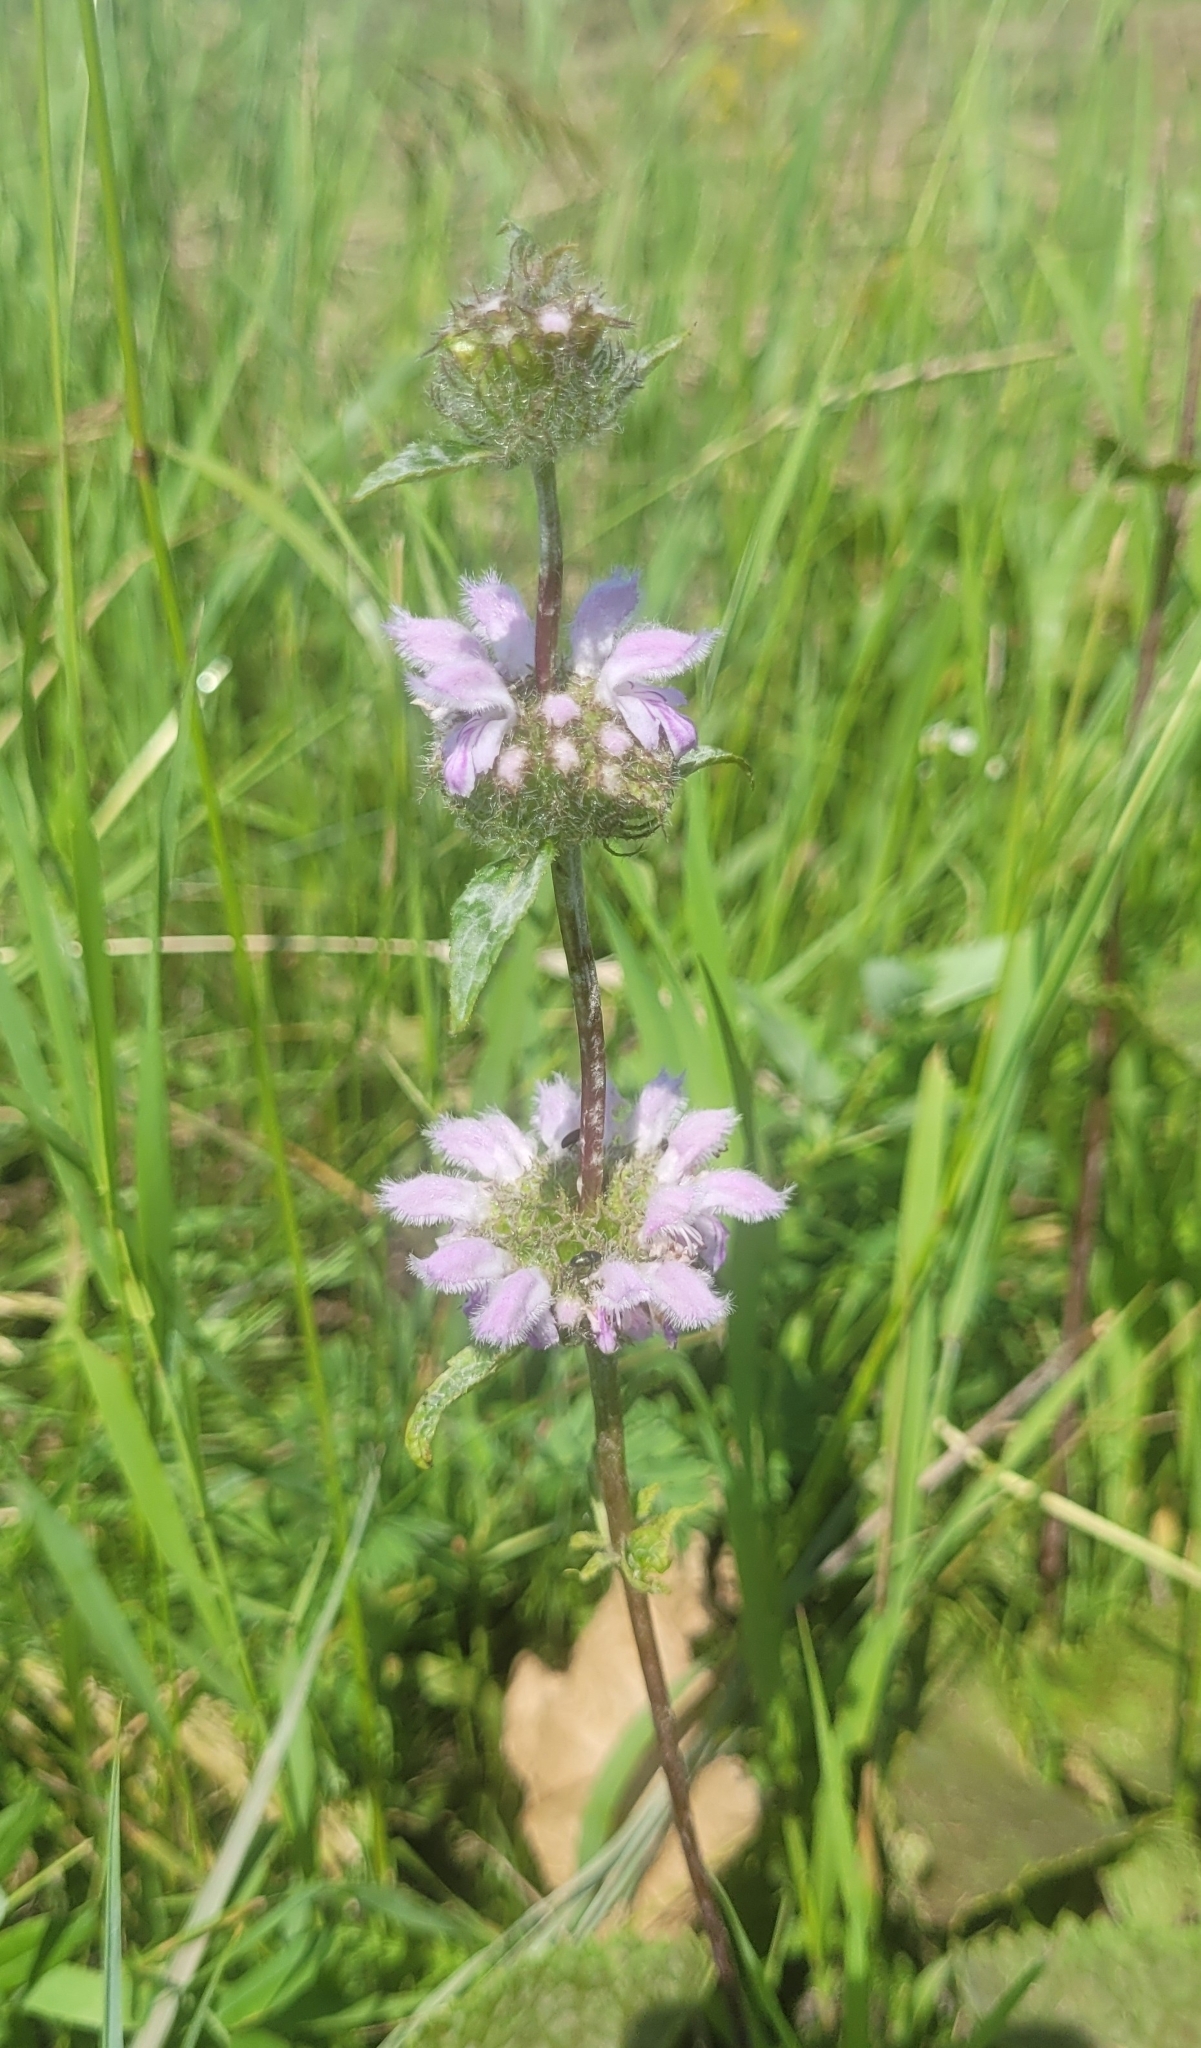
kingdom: Plantae
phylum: Tracheophyta
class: Magnoliopsida
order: Lamiales
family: Lamiaceae
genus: Phlomoides
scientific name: Phlomoides tuberosa
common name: Tuberous jerusalem sage
